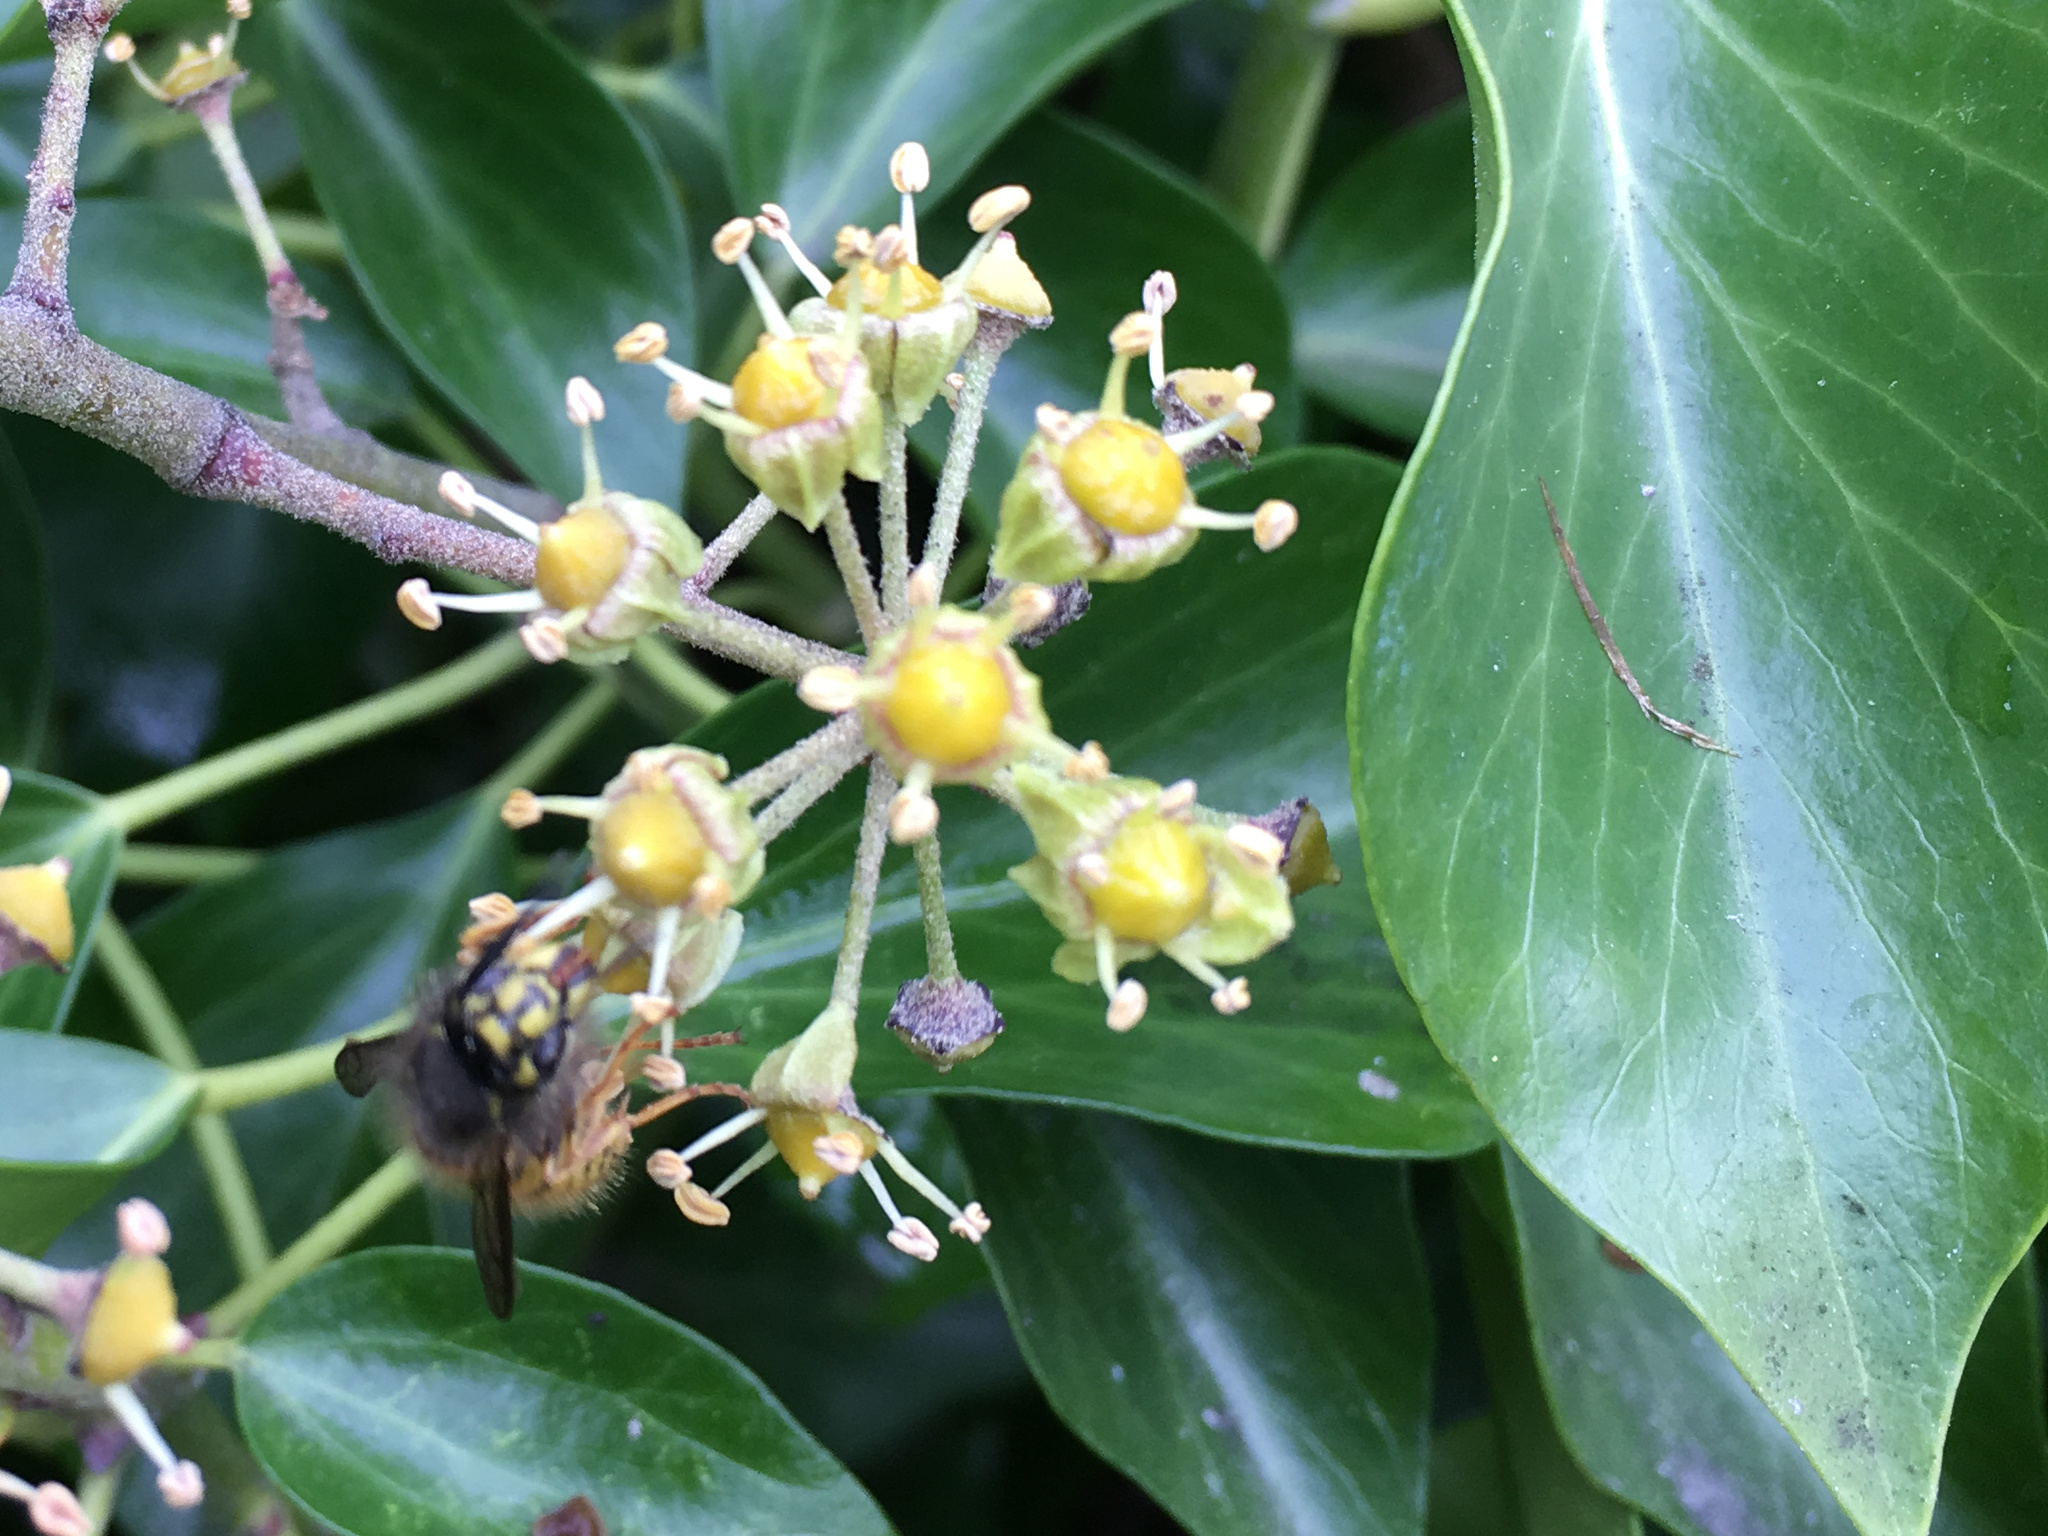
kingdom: Animalia
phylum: Arthropoda
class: Insecta
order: Hymenoptera
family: Vespidae
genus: Vespula
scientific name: Vespula vulgaris
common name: Common wasp
